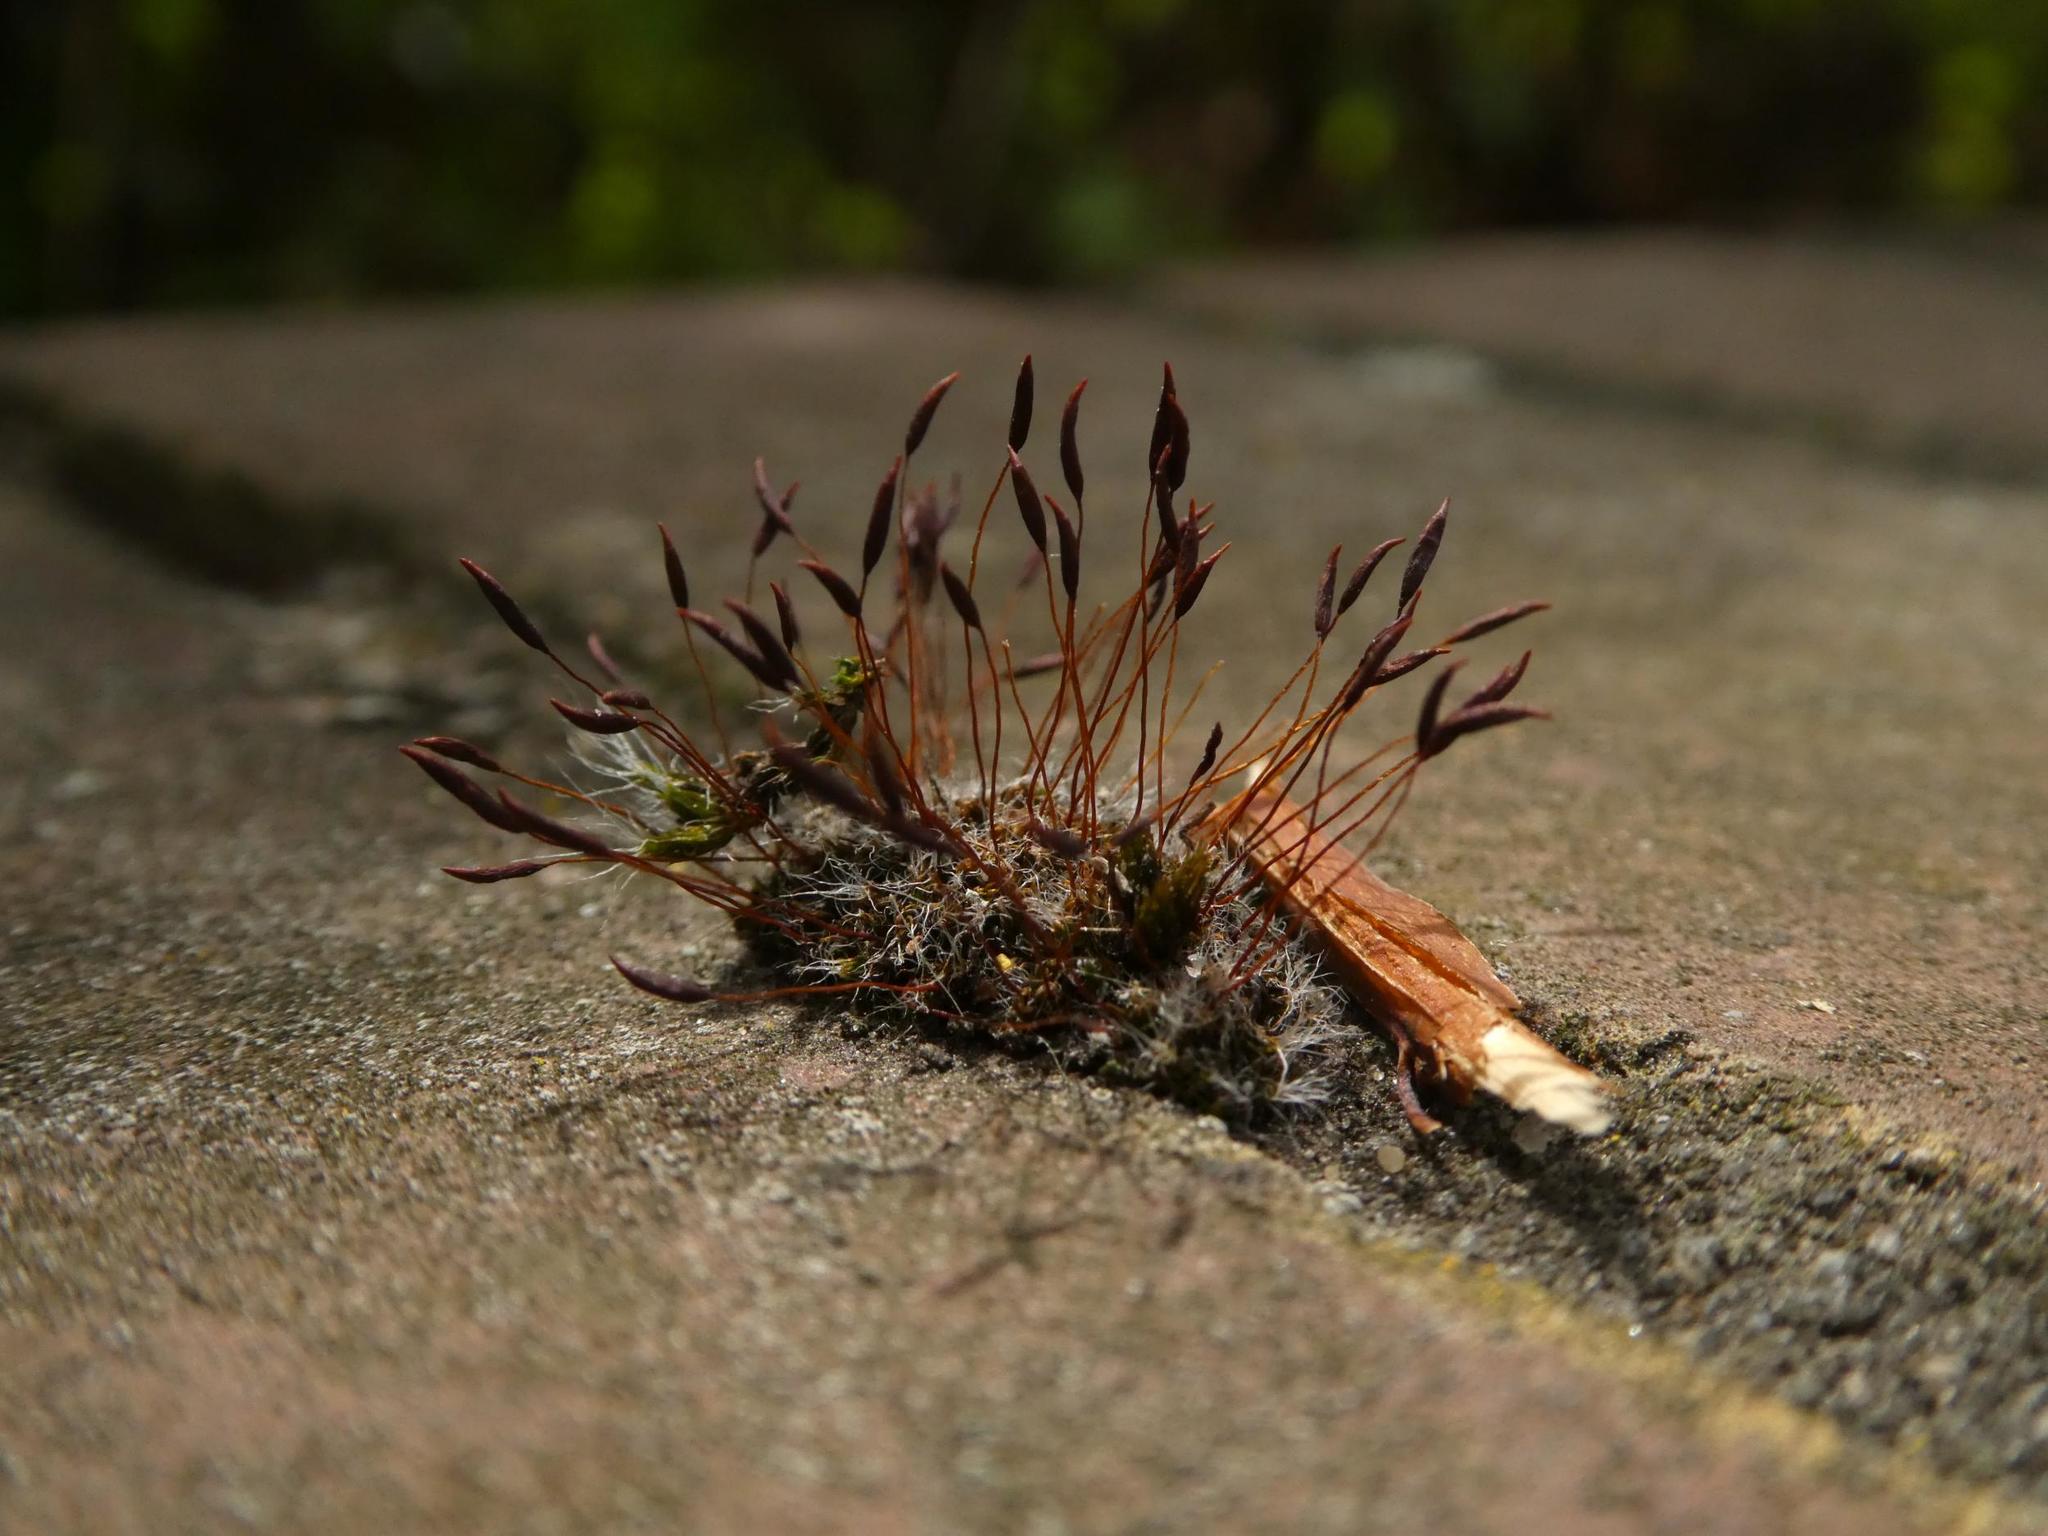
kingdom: Plantae
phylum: Bryophyta
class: Bryopsida
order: Pottiales
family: Pottiaceae
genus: Tortula
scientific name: Tortula muralis
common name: Wall screw-moss
